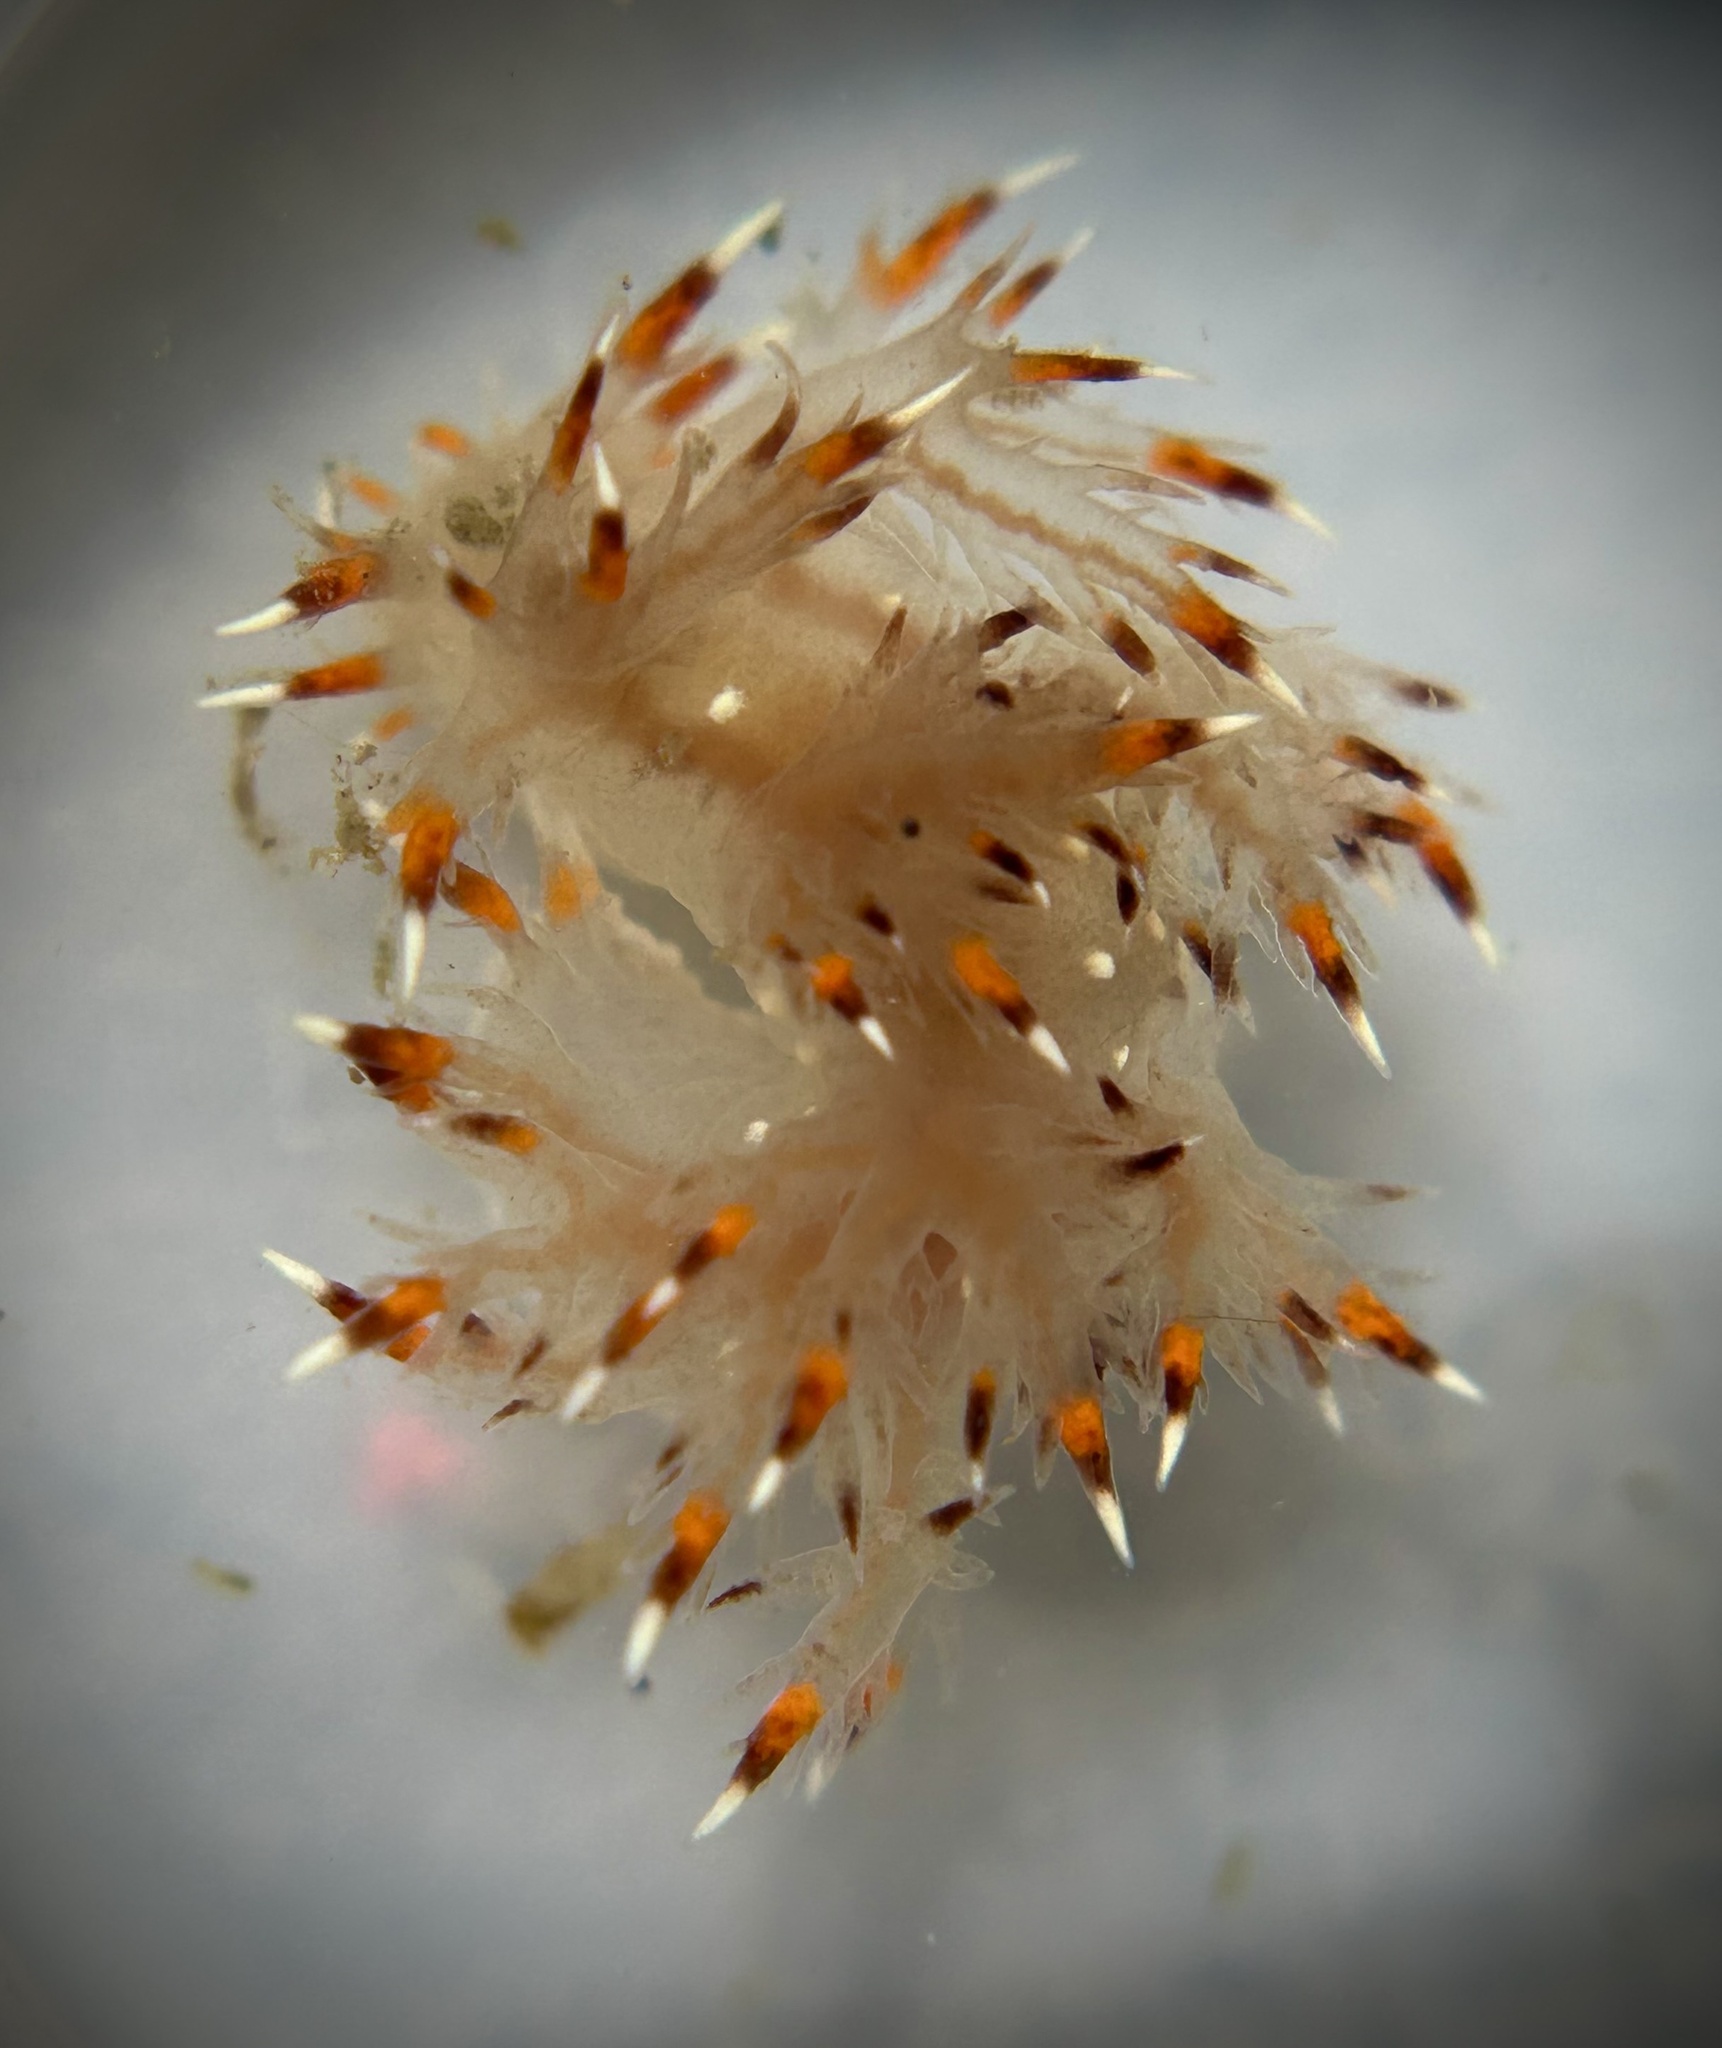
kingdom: Animalia
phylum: Mollusca
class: Gastropoda
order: Nudibranchia
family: Dendronotidae
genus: Dendronotus
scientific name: Dendronotus iris
